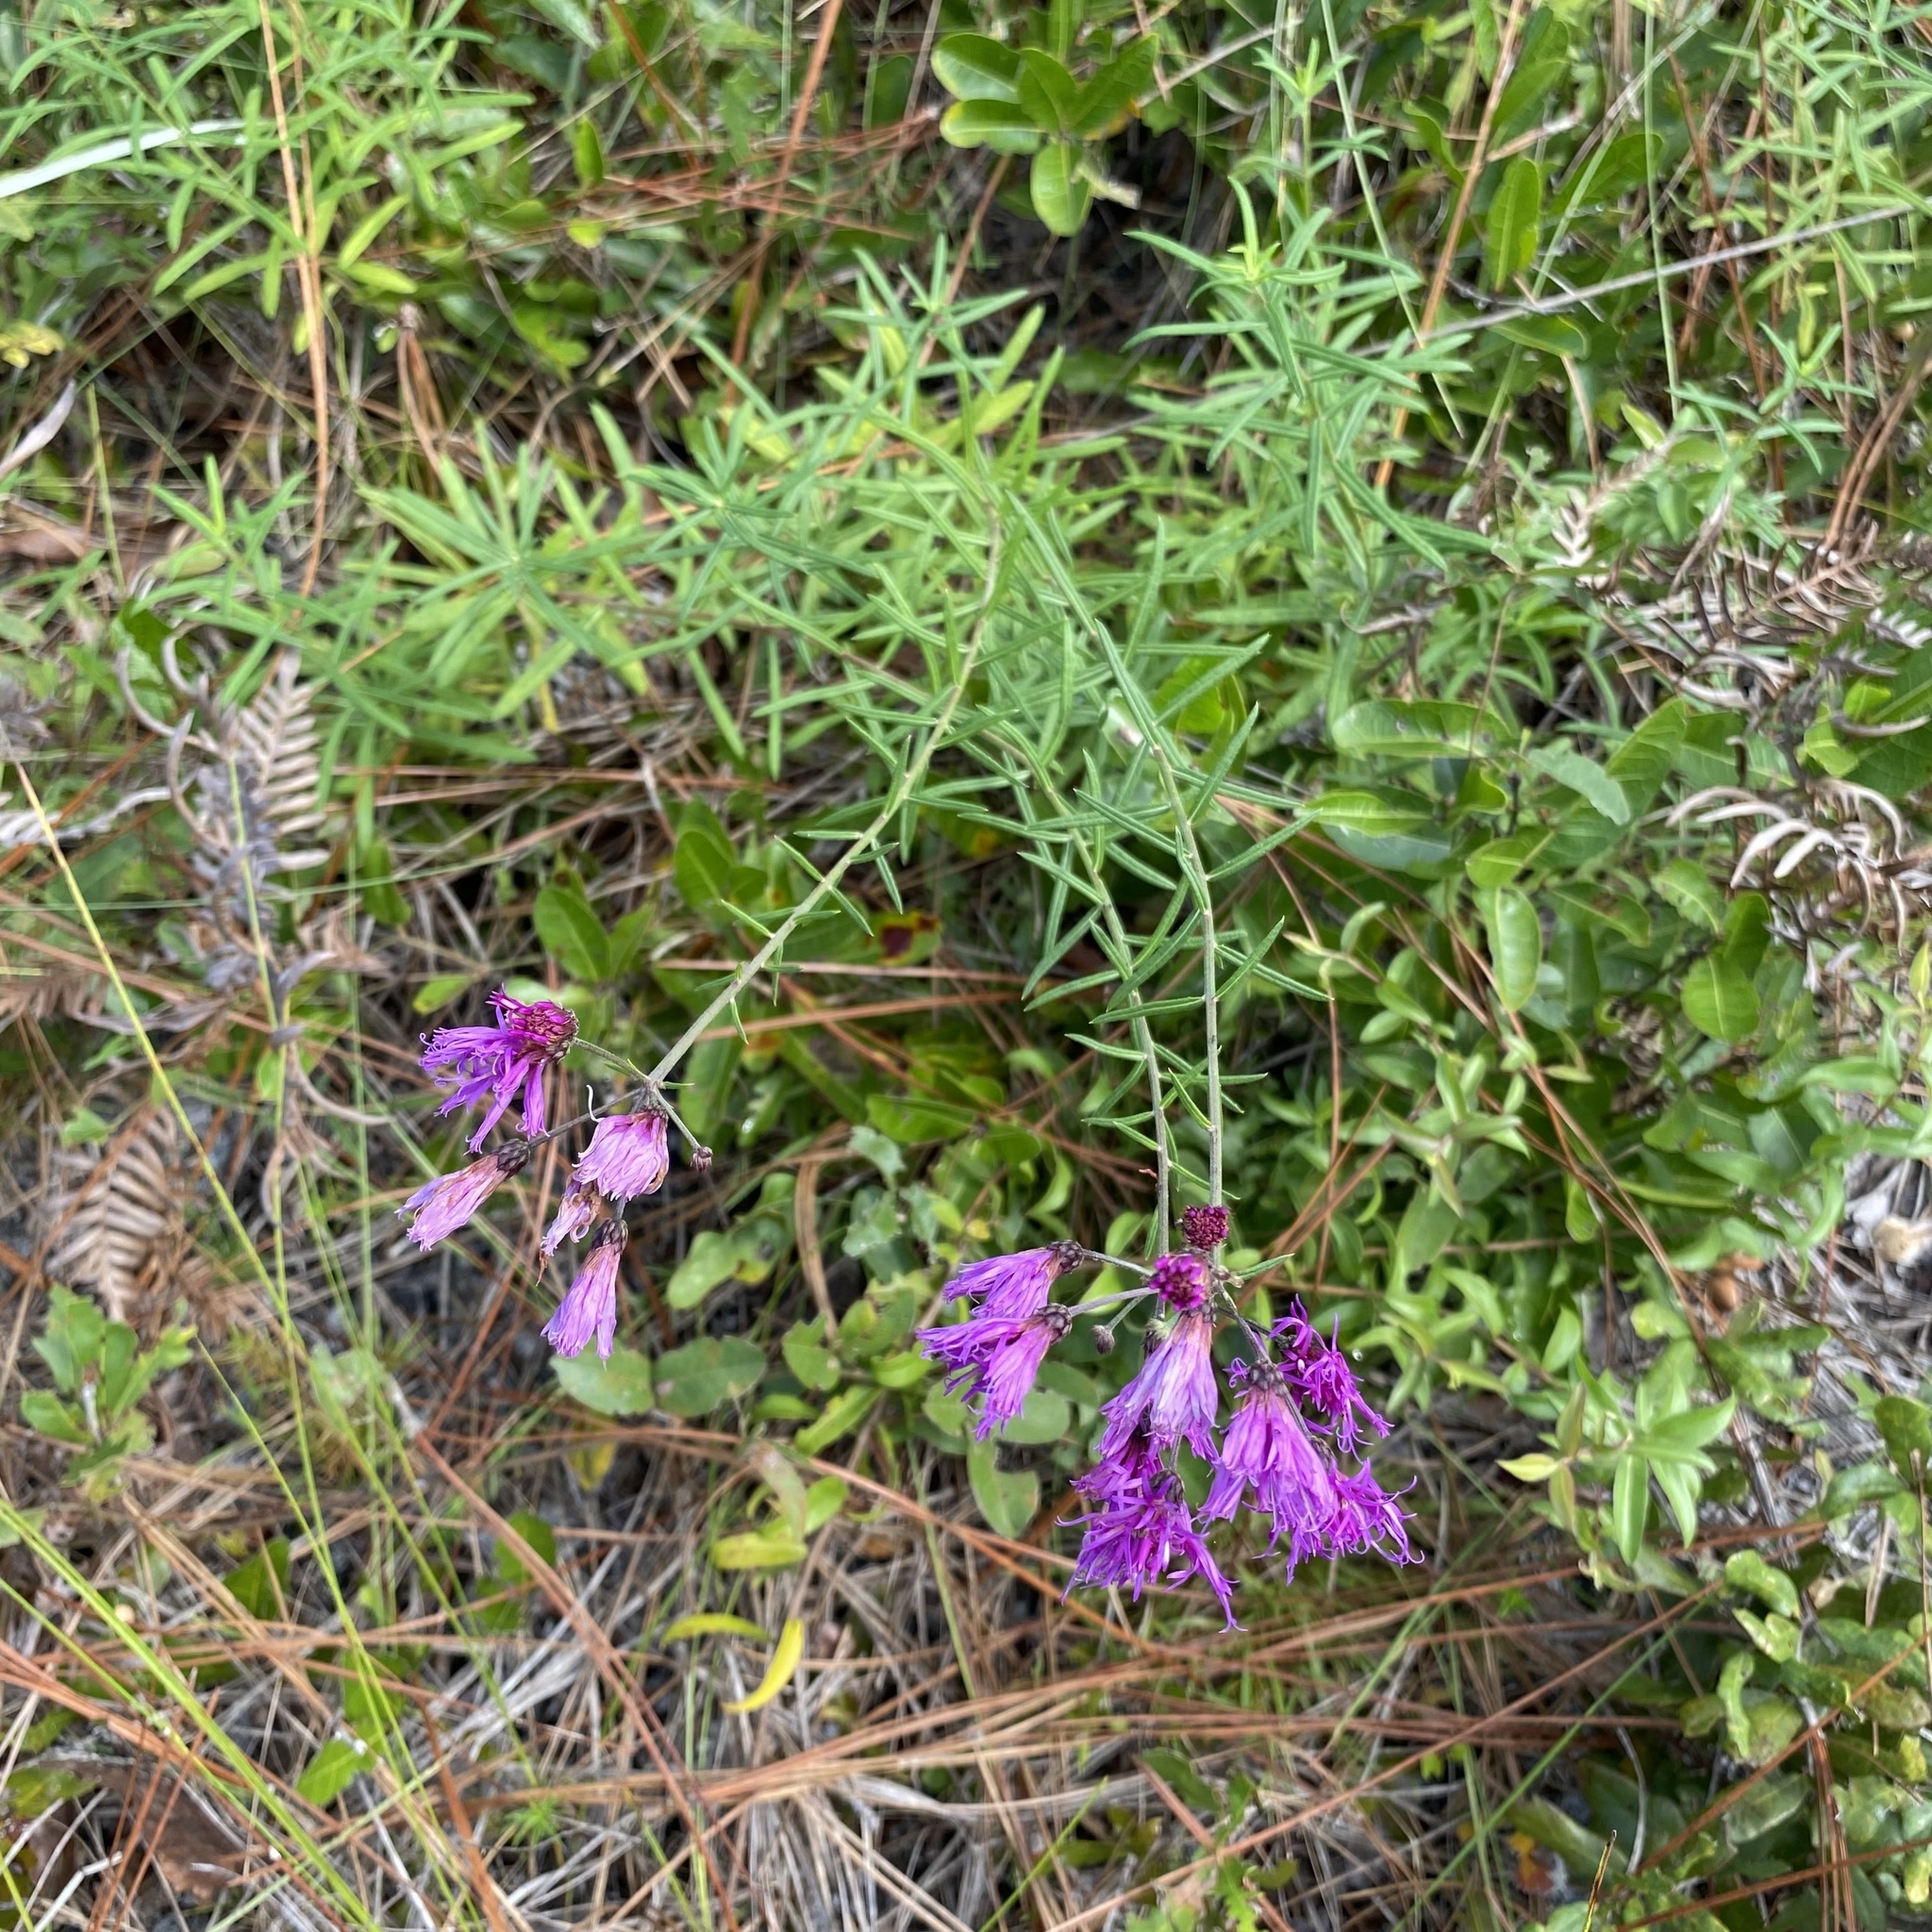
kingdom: Plantae
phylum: Tracheophyta
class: Magnoliopsida
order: Asterales
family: Asteraceae
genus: Vernonia
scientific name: Vernonia angustifolia
